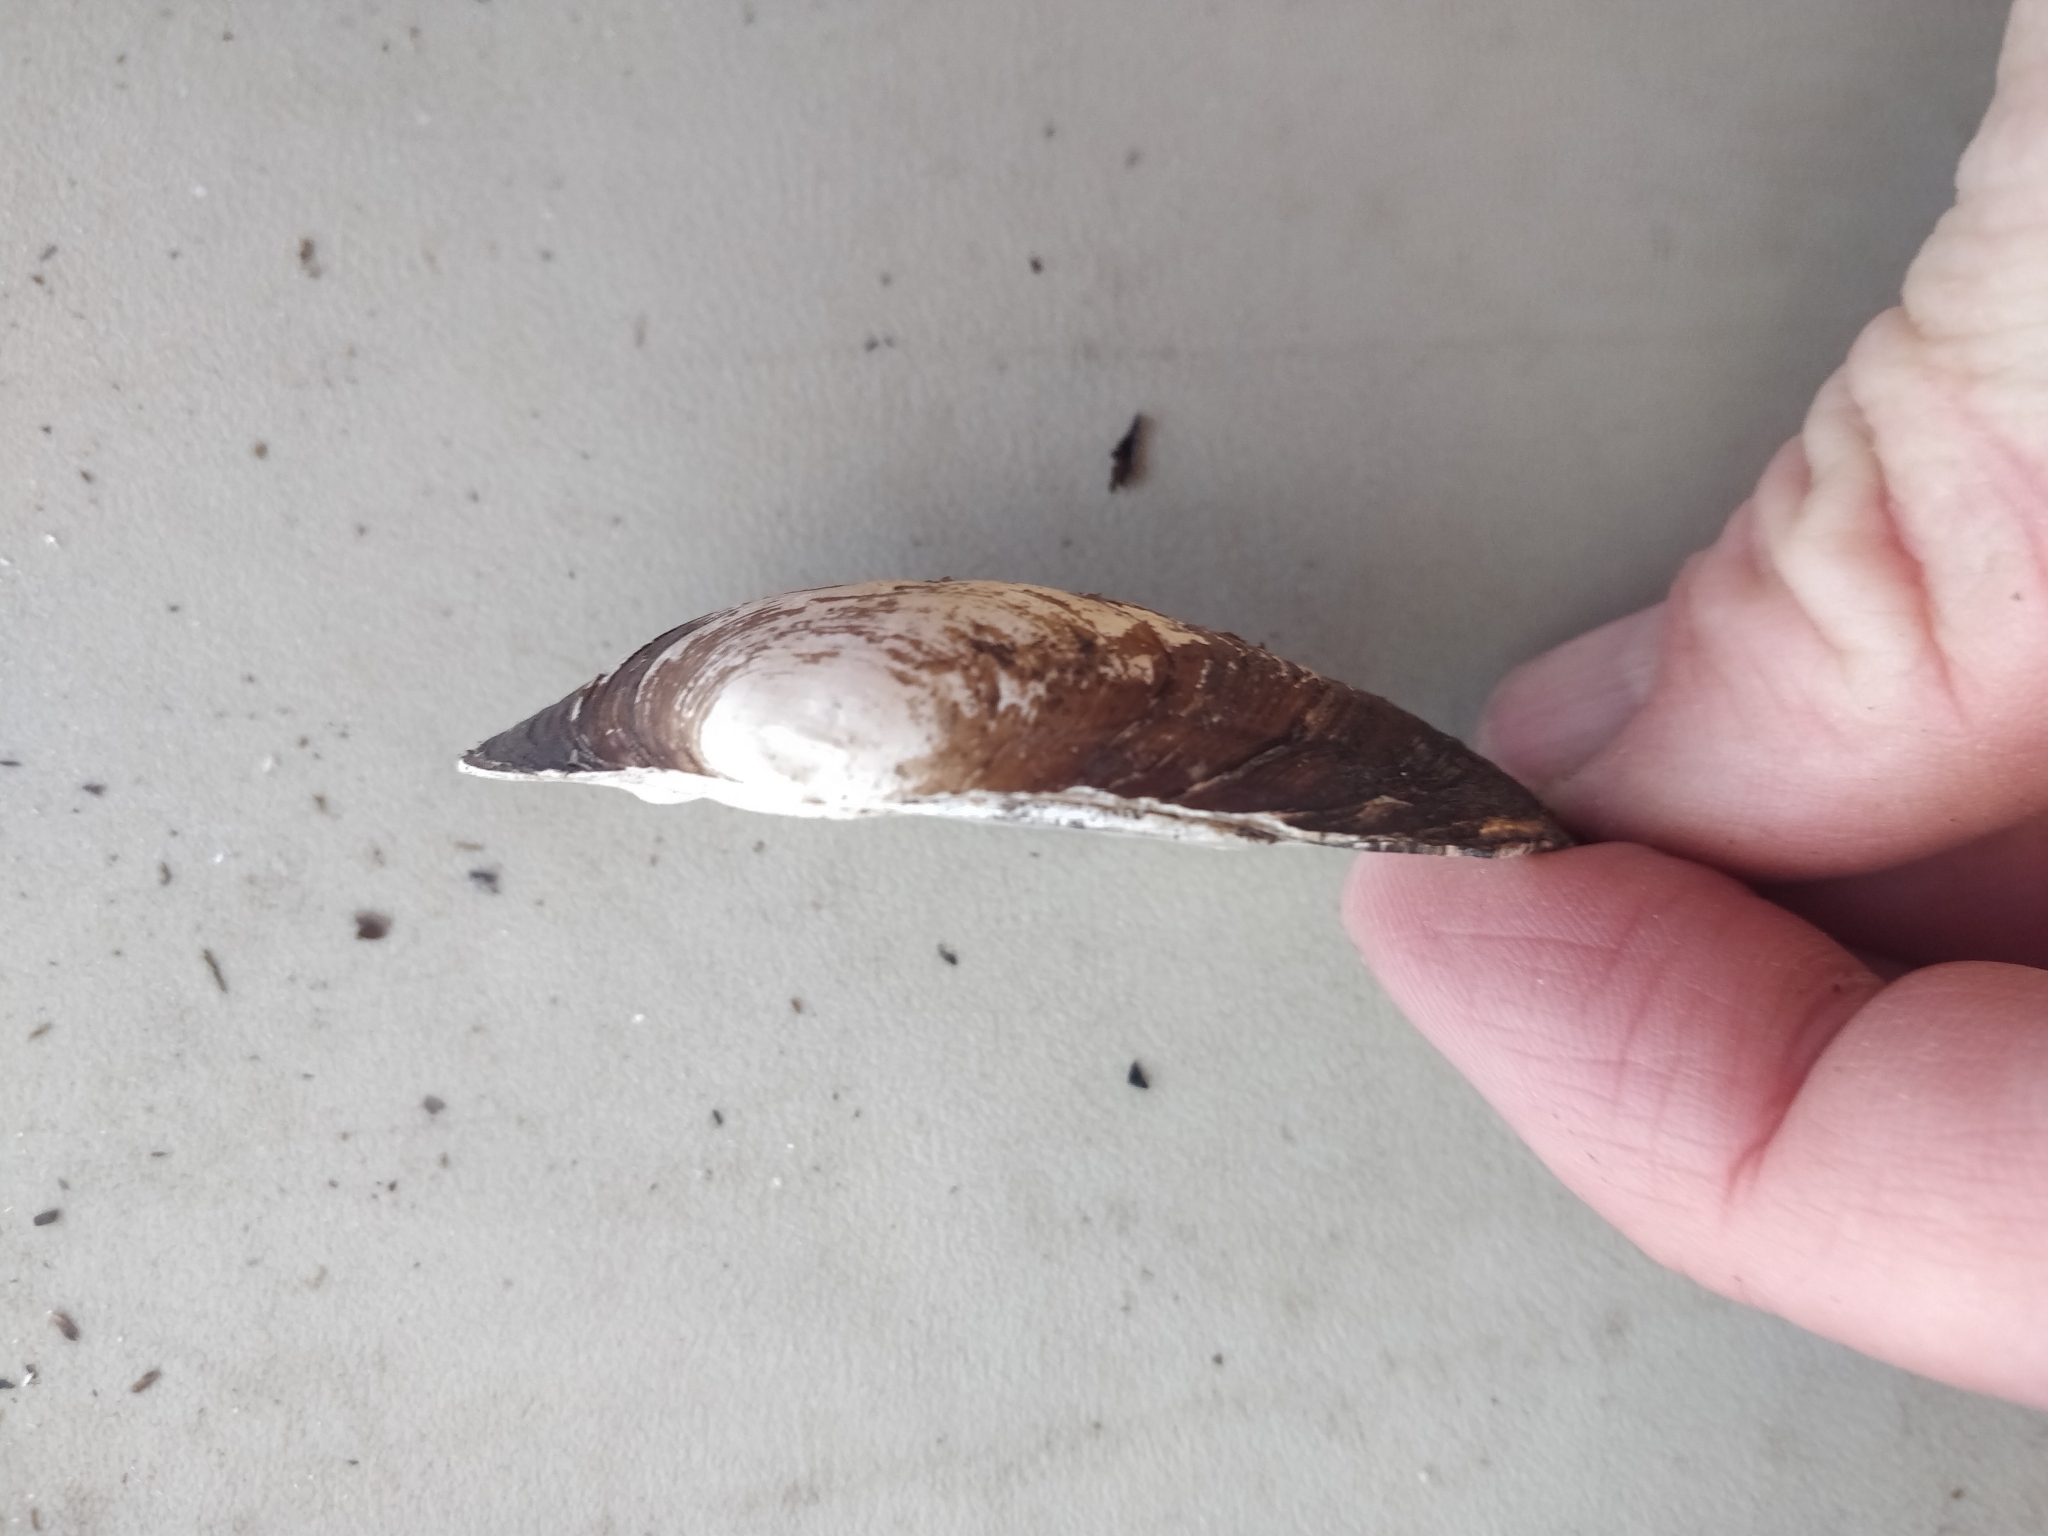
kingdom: Animalia
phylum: Mollusca
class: Bivalvia
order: Unionida
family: Unionidae
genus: Strophitus
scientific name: Strophitus undulatus
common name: Creeper
